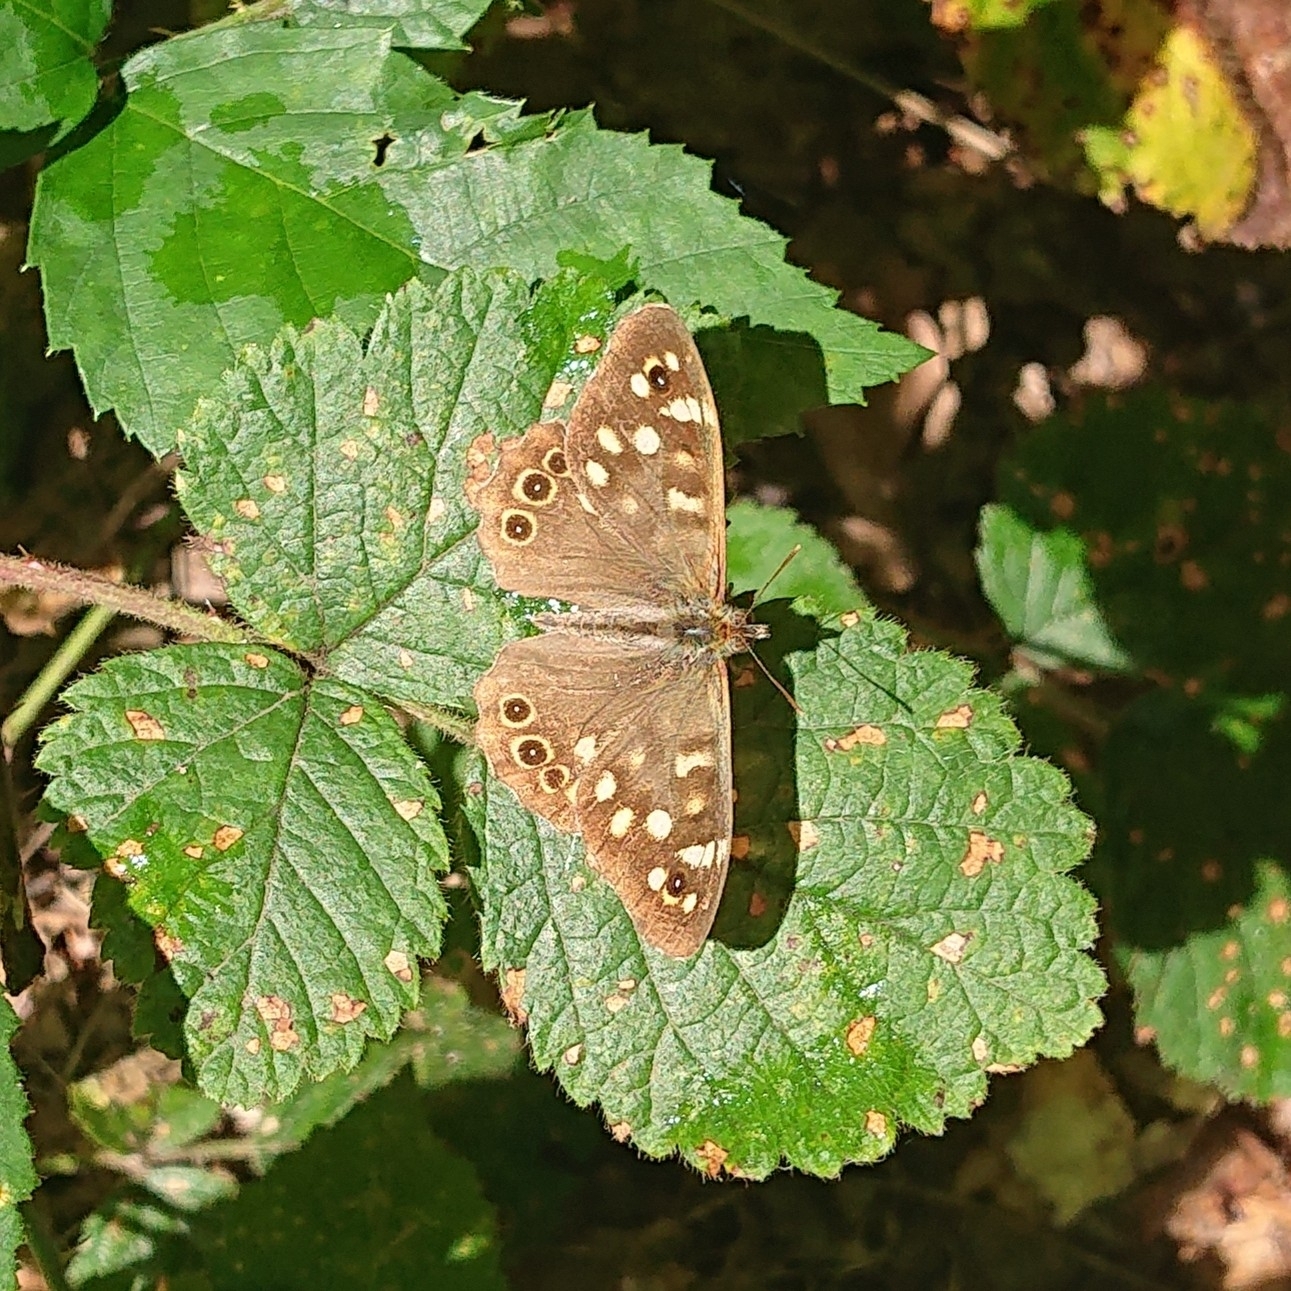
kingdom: Animalia
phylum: Arthropoda
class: Insecta
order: Lepidoptera
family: Nymphalidae
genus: Pararge
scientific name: Pararge aegeria
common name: Speckled wood
